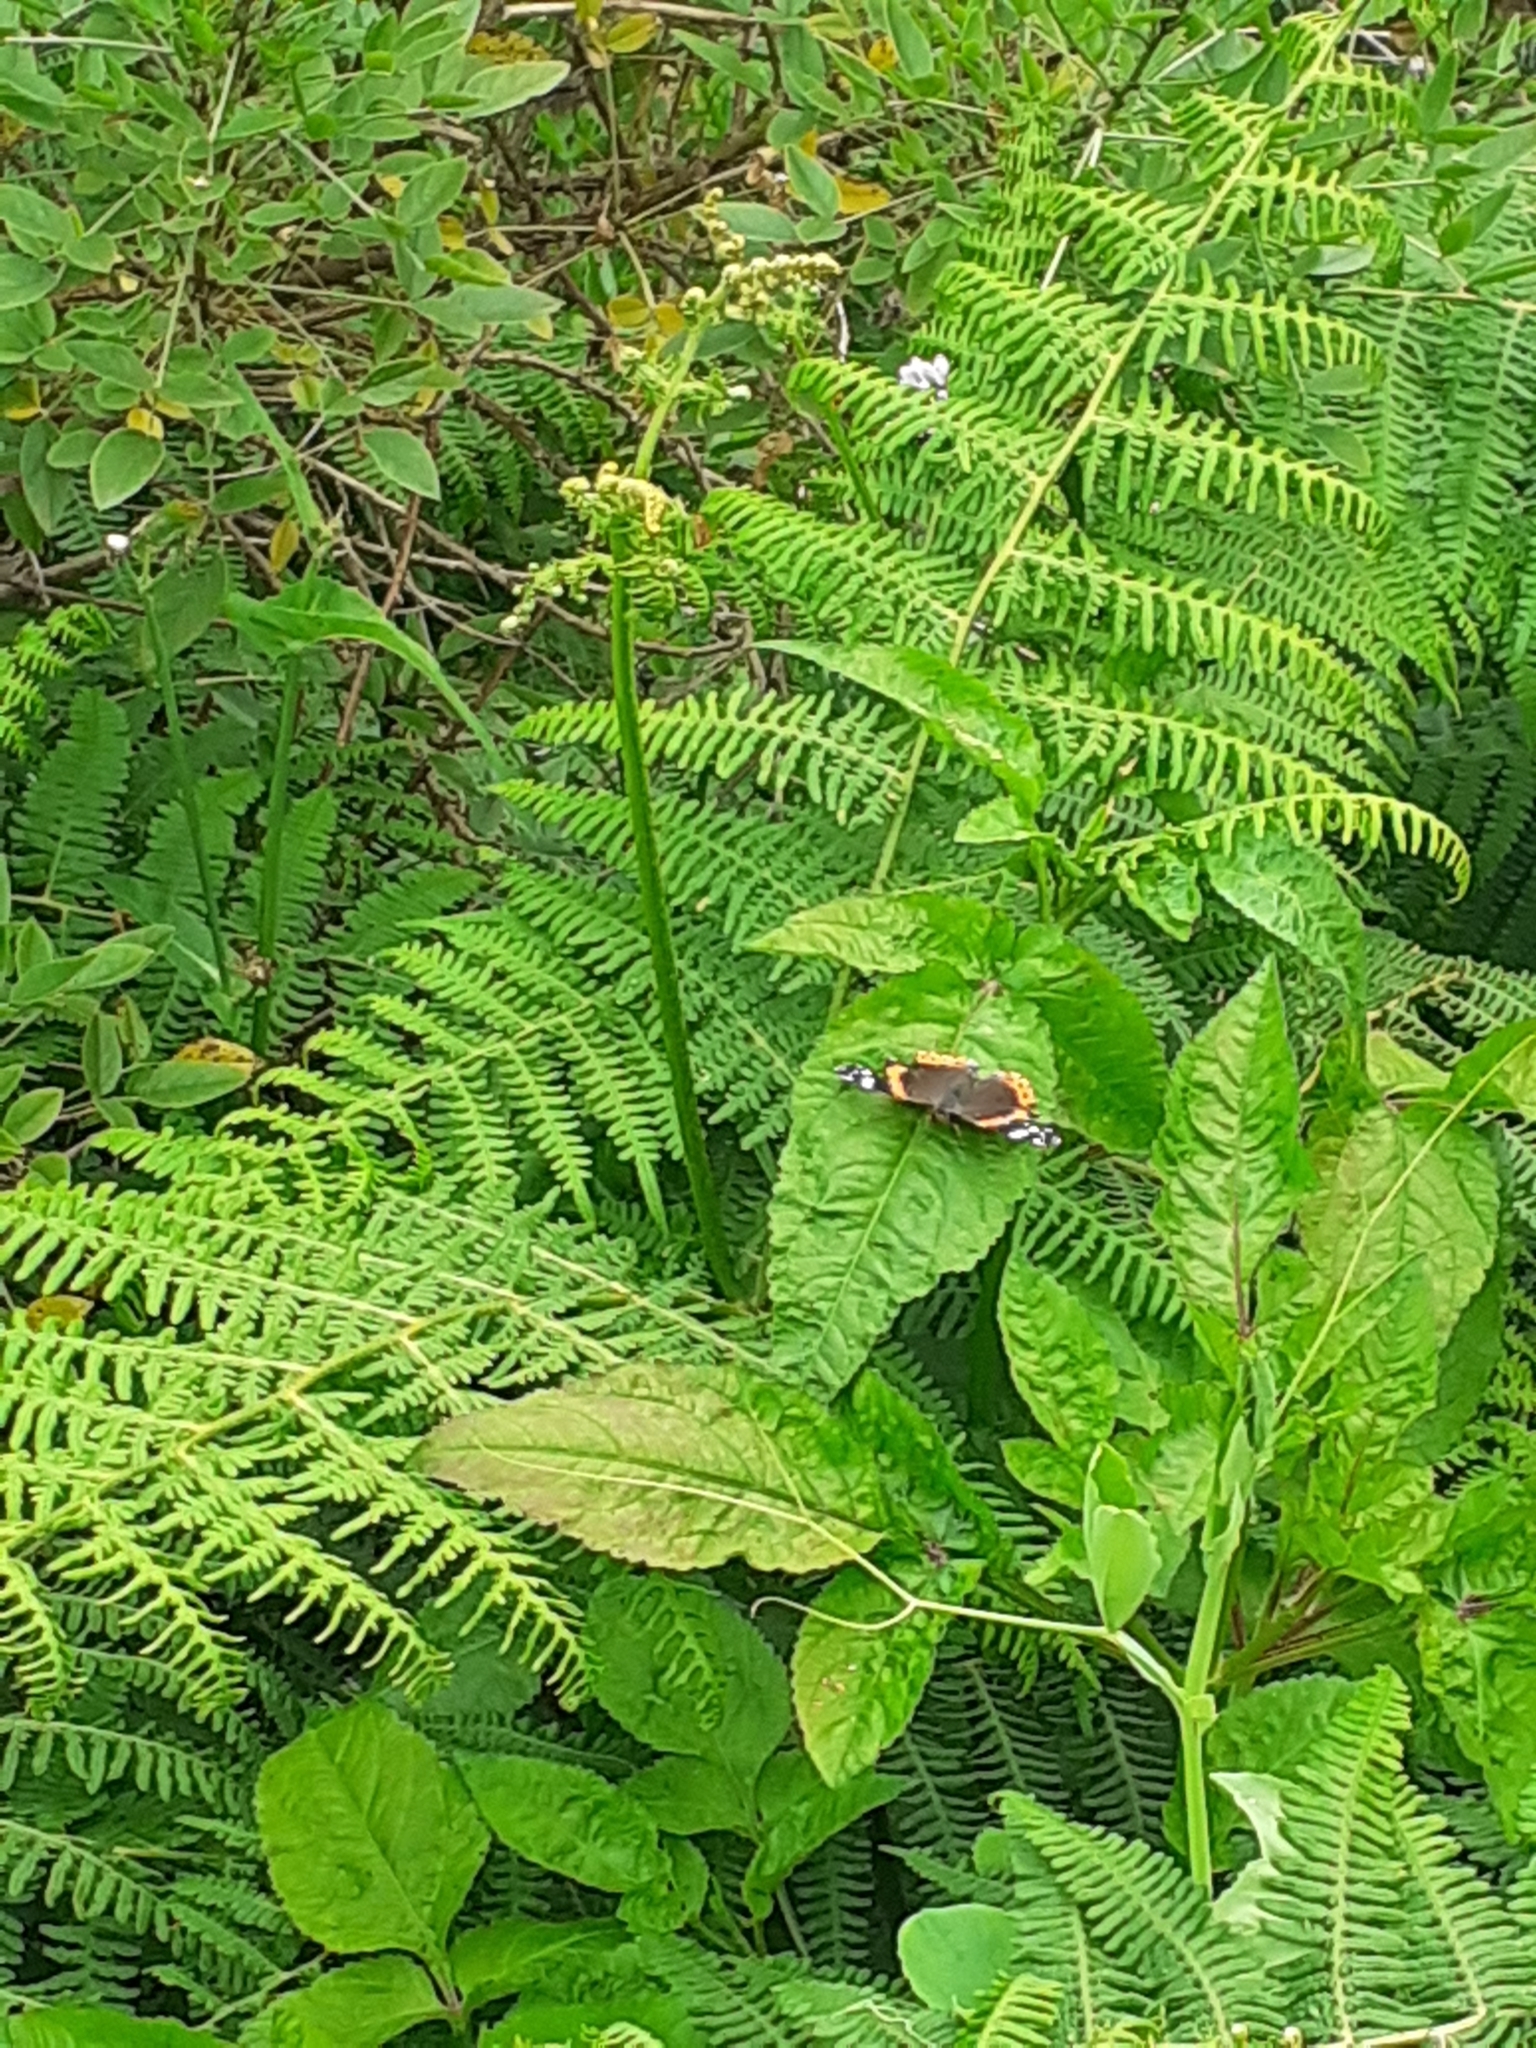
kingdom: Animalia
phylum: Arthropoda
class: Insecta
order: Lepidoptera
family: Nymphalidae
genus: Vanessa
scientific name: Vanessa atalanta
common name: Red admiral
